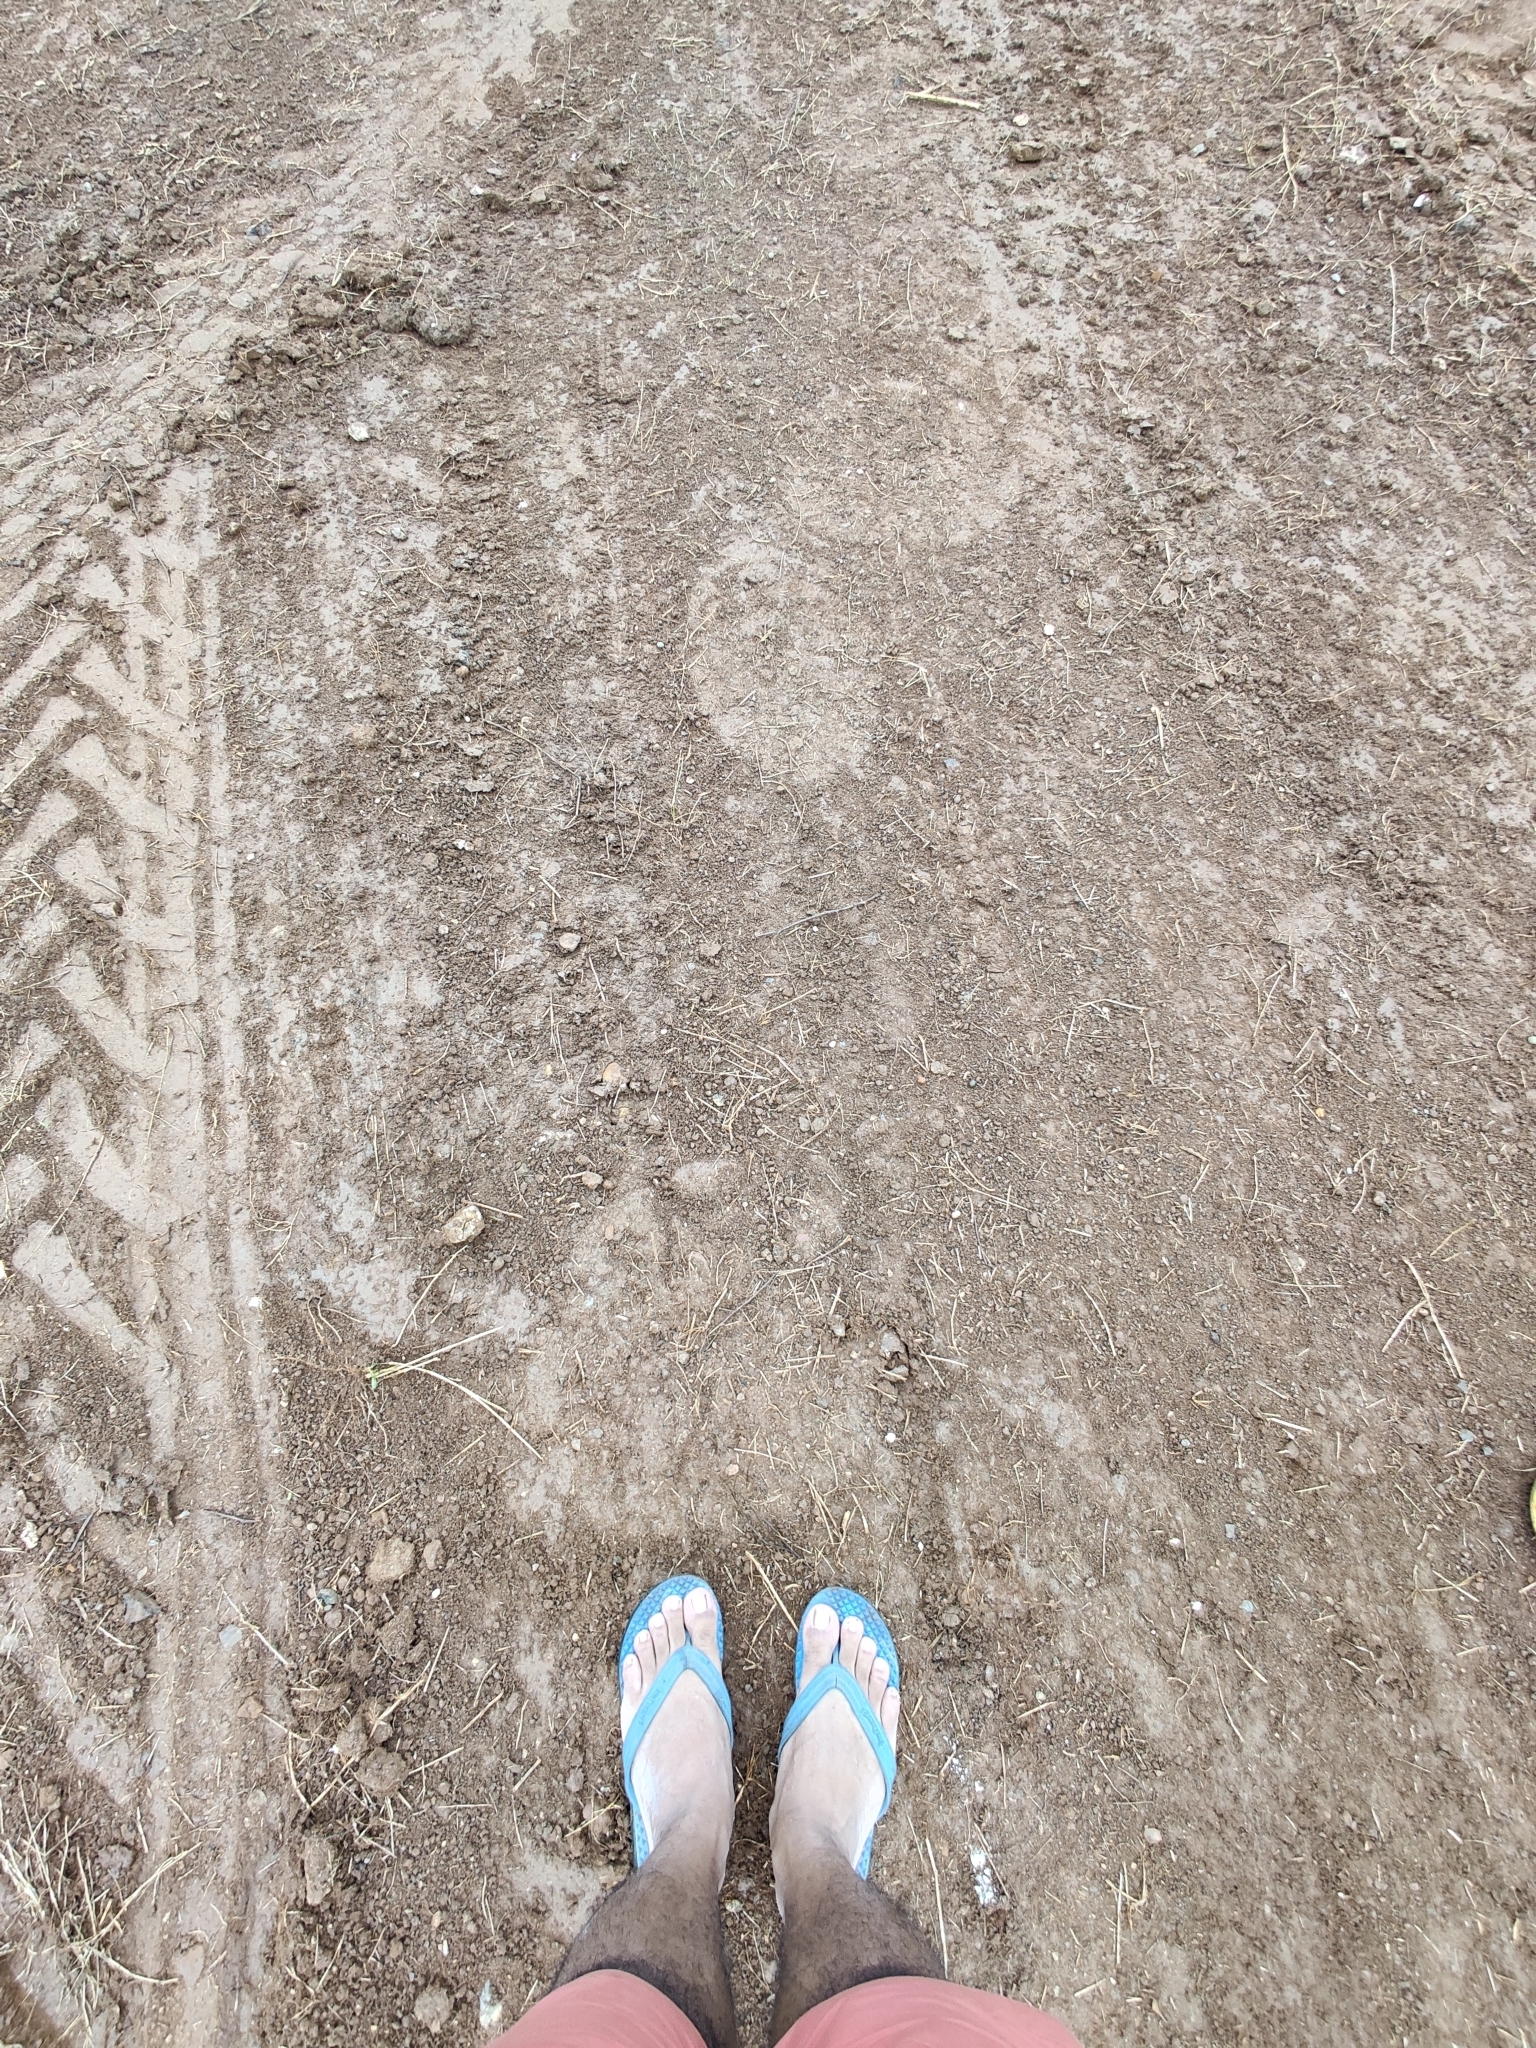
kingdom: Animalia
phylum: Chordata
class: Mammalia
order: Proboscidea
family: Elephantidae
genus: Elephas
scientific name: Elephas maximus
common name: Asian elephant
